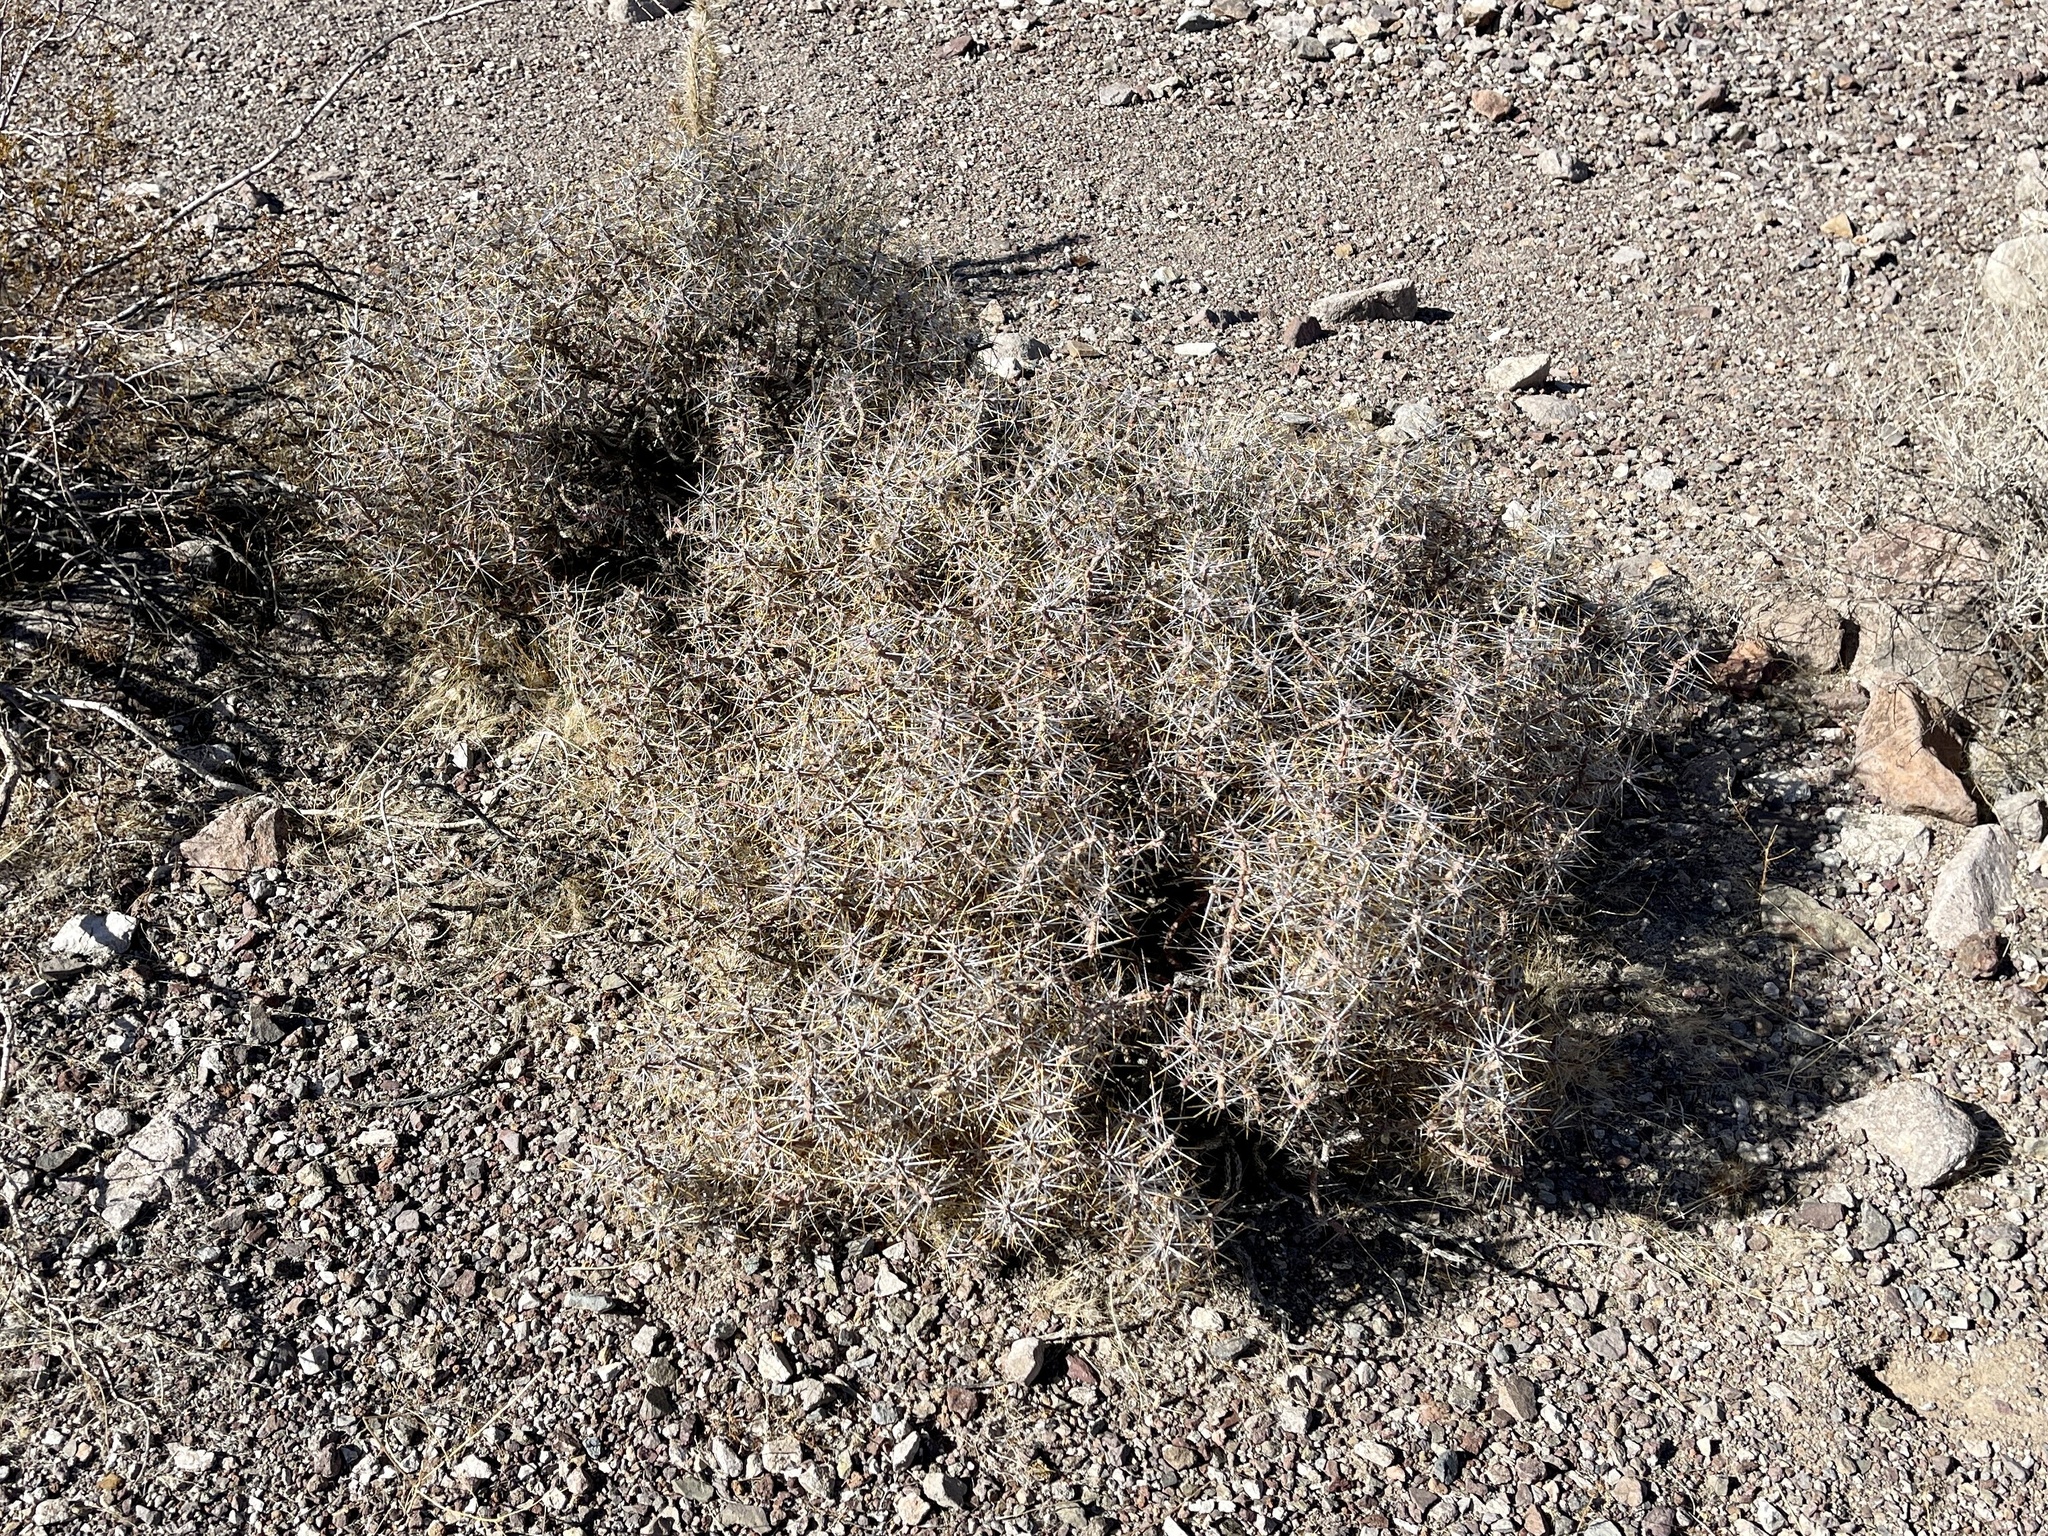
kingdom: Plantae
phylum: Tracheophyta
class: Magnoliopsida
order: Caryophyllales
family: Cactaceae
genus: Cylindropuntia
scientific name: Cylindropuntia ramosissima
